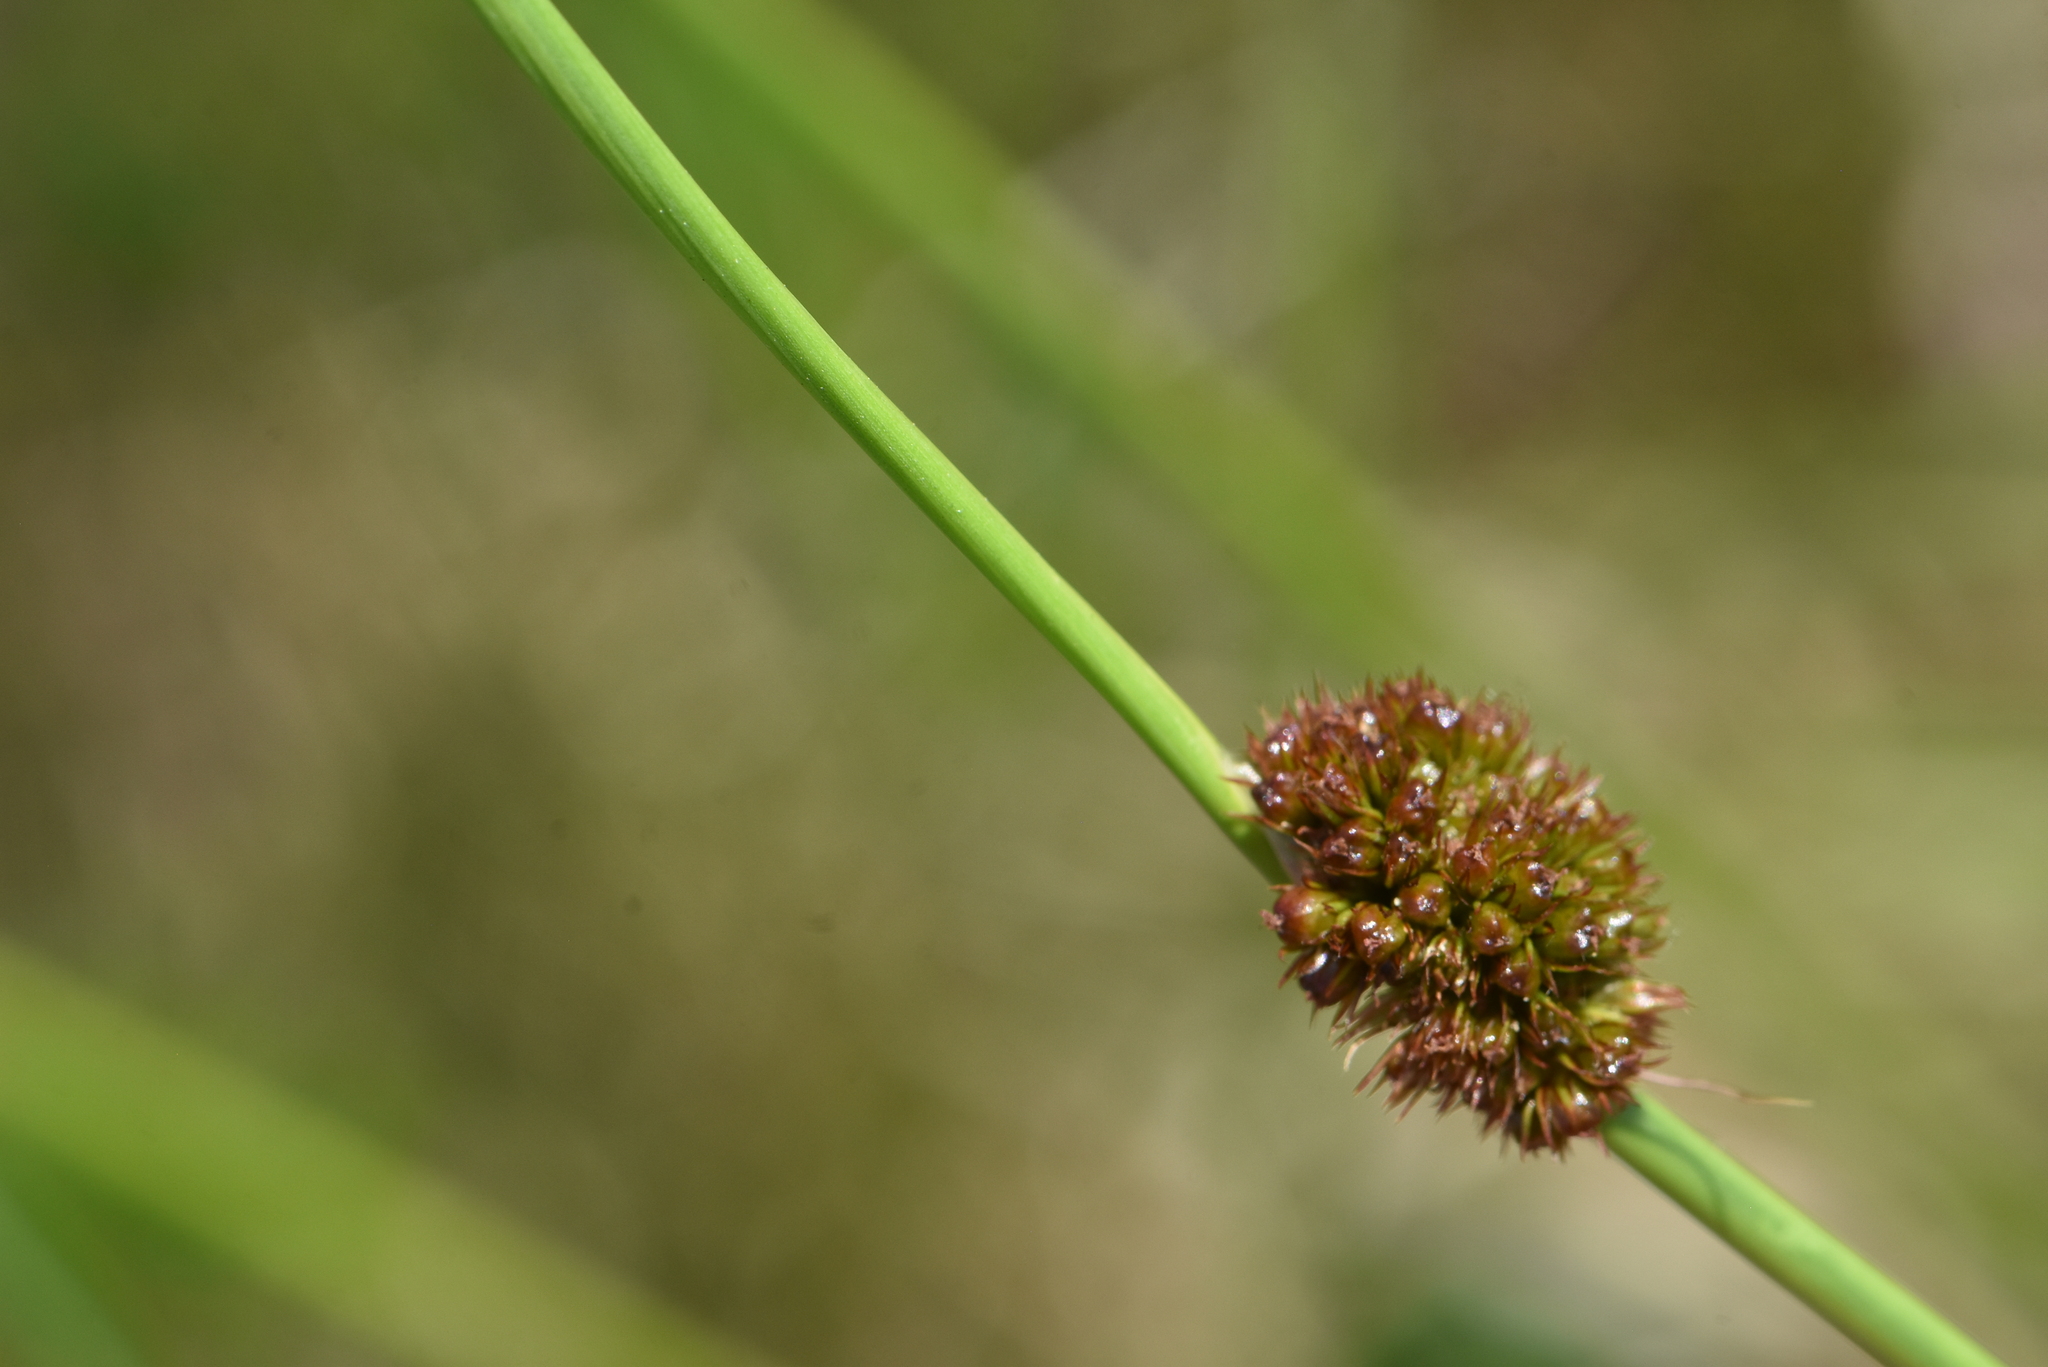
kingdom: Plantae
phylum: Tracheophyta
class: Liliopsida
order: Poales
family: Juncaceae
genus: Juncus
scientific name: Juncus conglomeratus
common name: Compact rush
